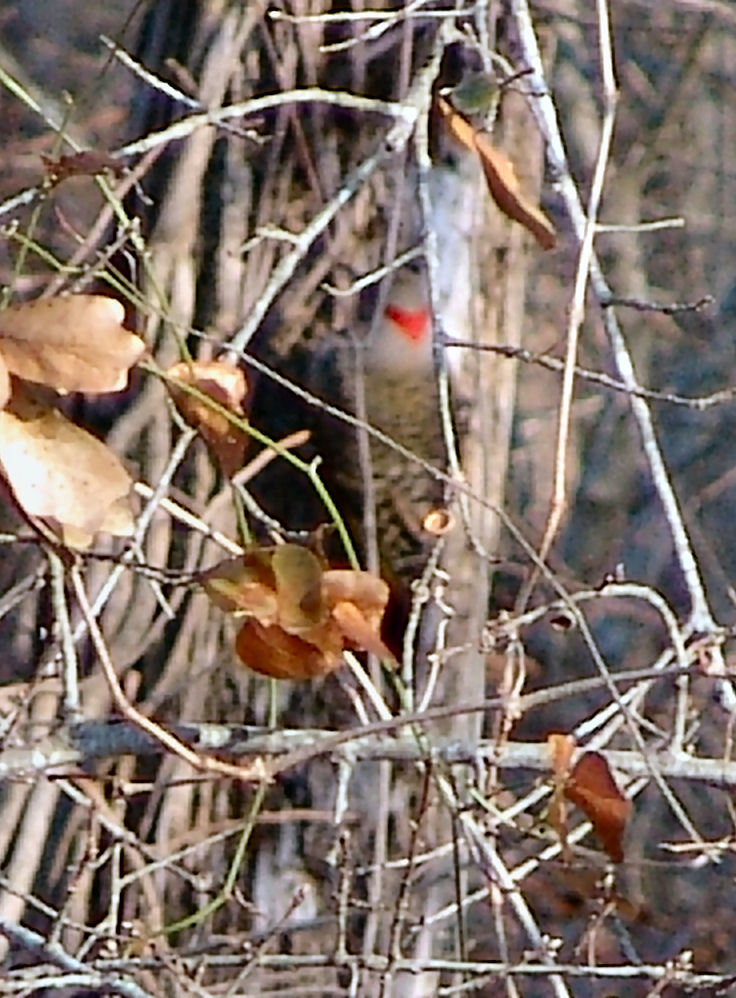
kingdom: Animalia
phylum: Chordata
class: Aves
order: Piciformes
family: Picidae
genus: Colaptes
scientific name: Colaptes auratus
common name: Northern flicker
